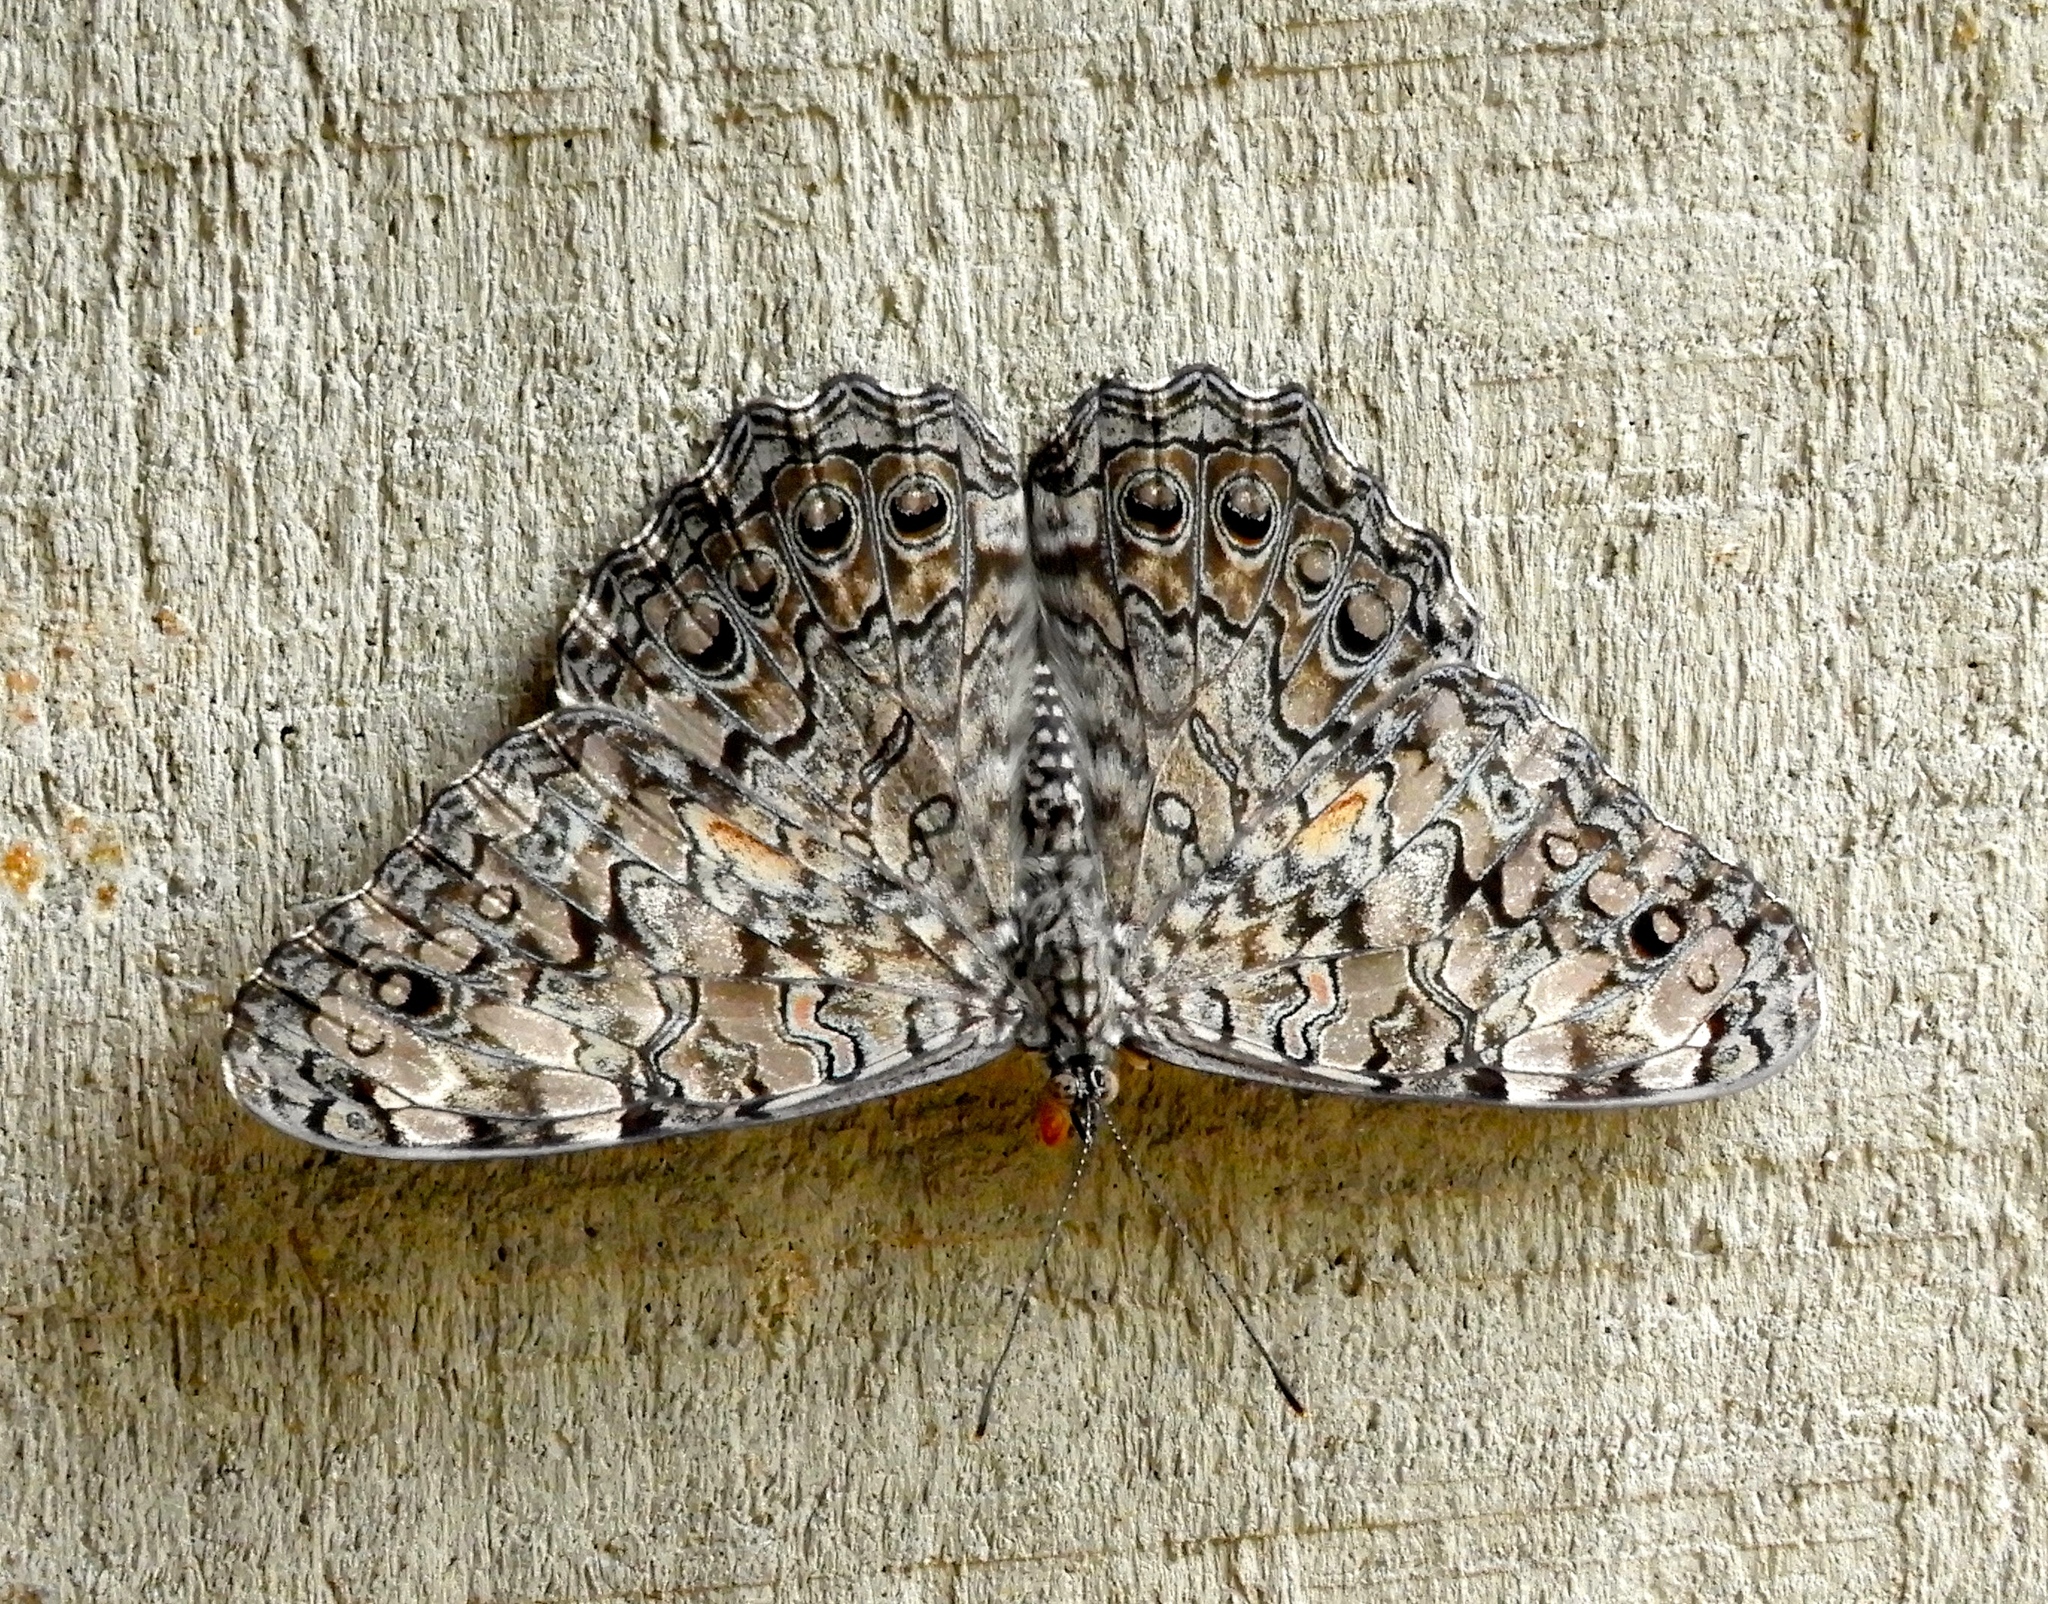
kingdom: Animalia
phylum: Arthropoda
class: Insecta
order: Lepidoptera
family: Nymphalidae
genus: Hamadryas
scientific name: Hamadryas februa
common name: Gray cracker
